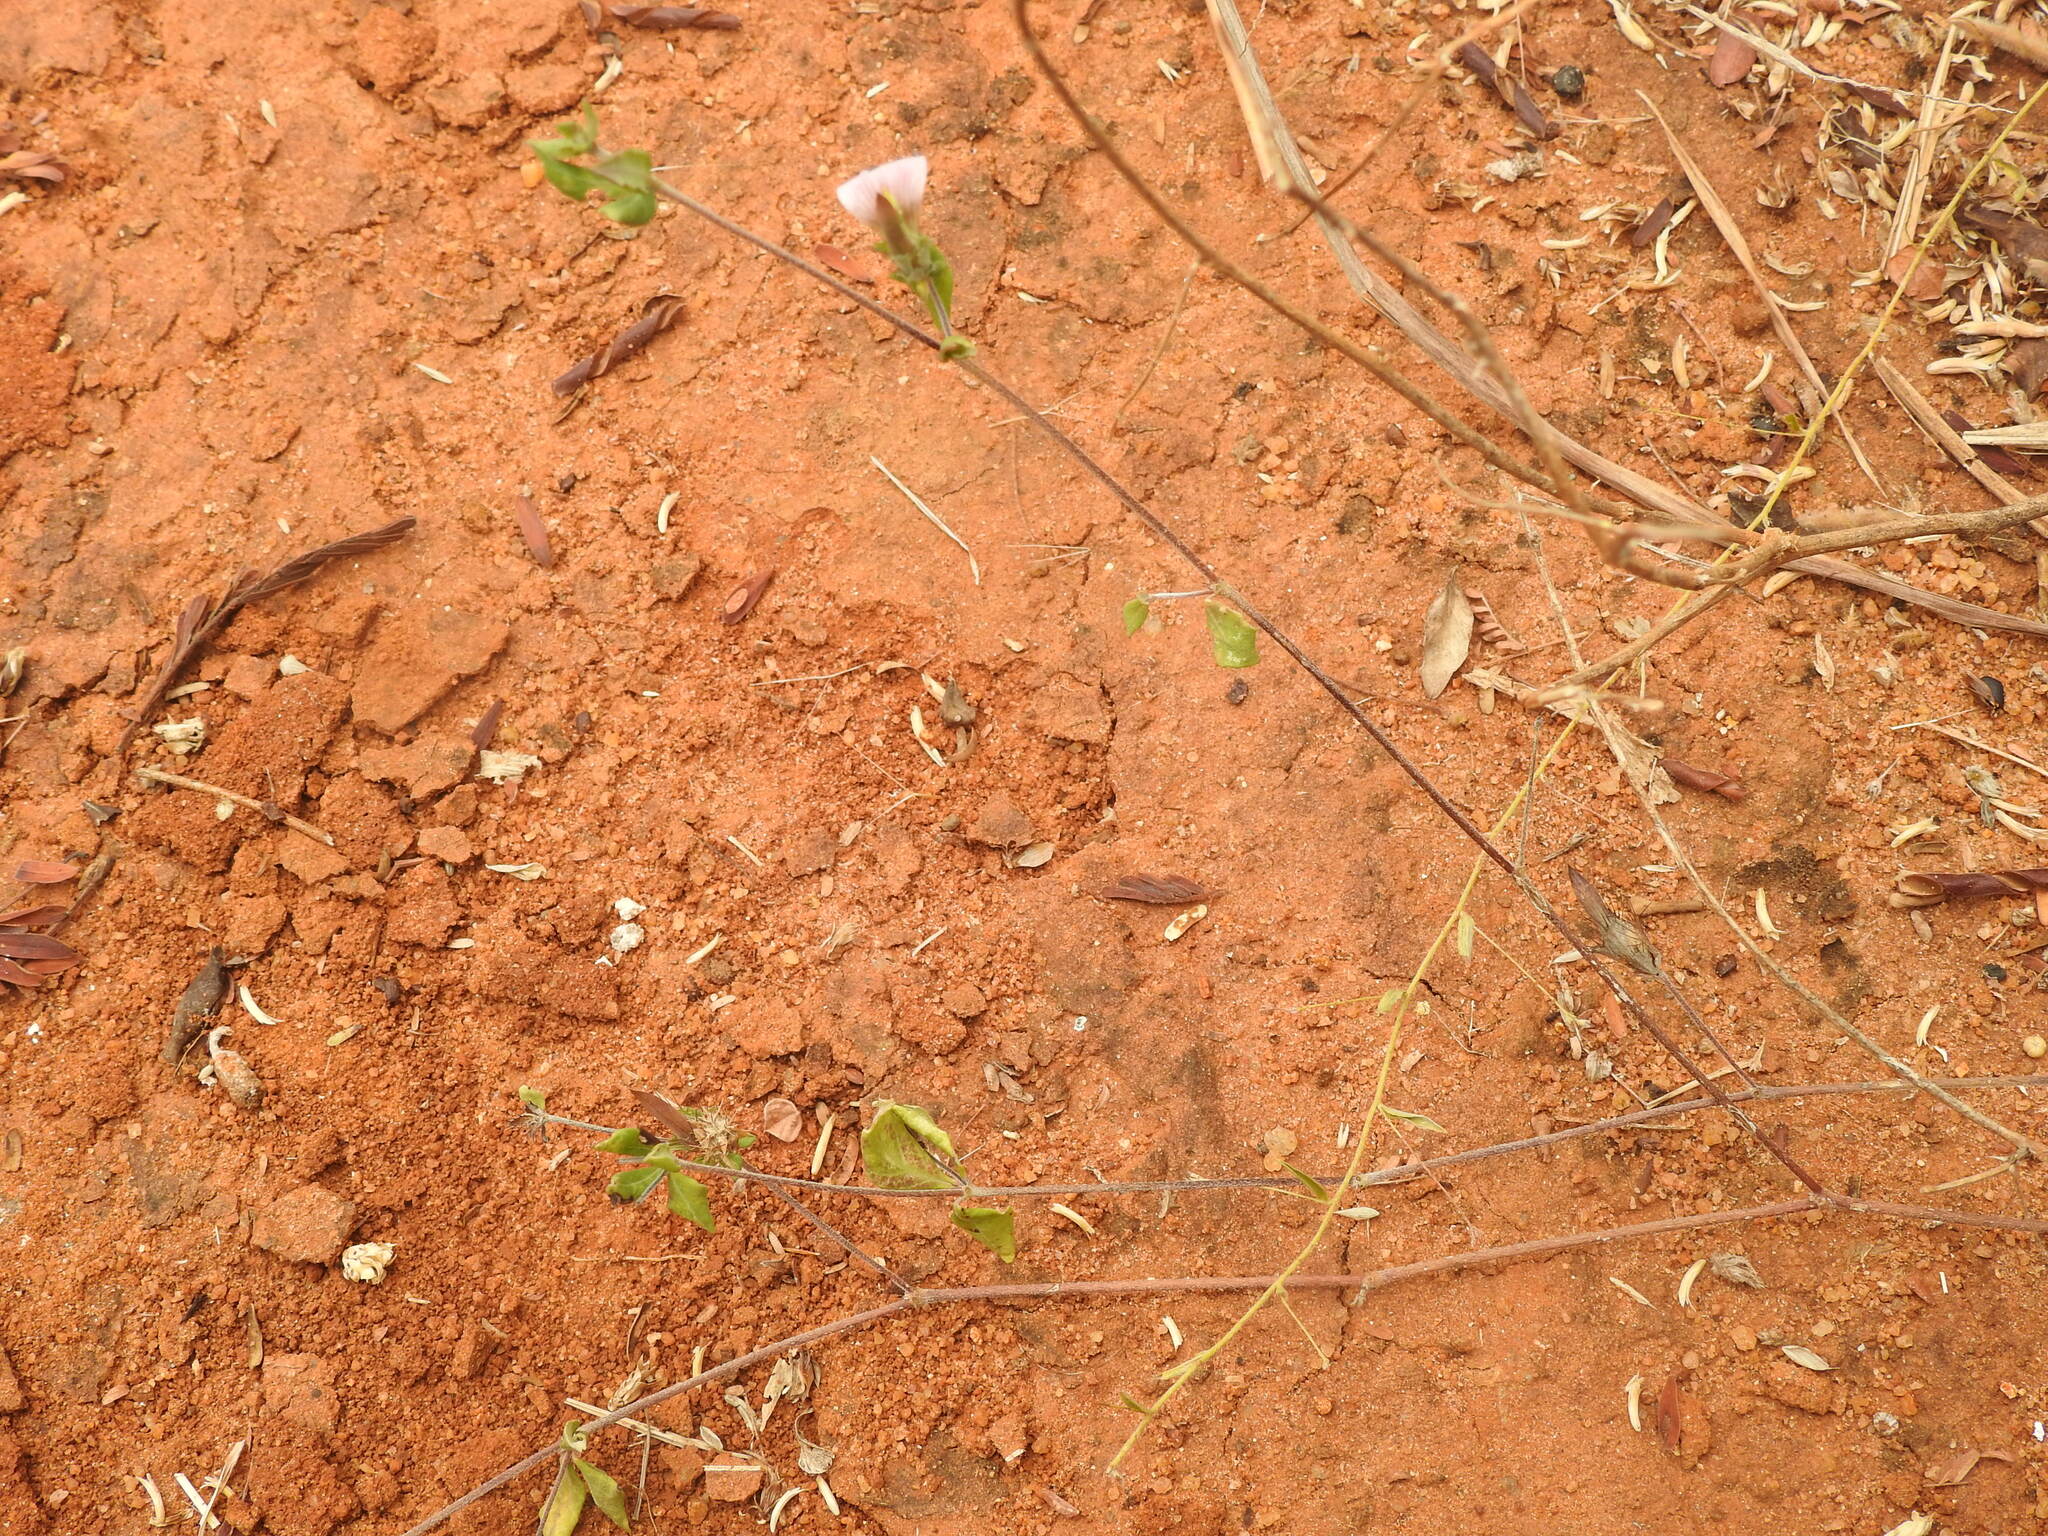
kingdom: Plantae
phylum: Tracheophyta
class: Magnoliopsida
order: Lamiales
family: Acanthaceae
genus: Blepharis
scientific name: Blepharis maderaspatensis
